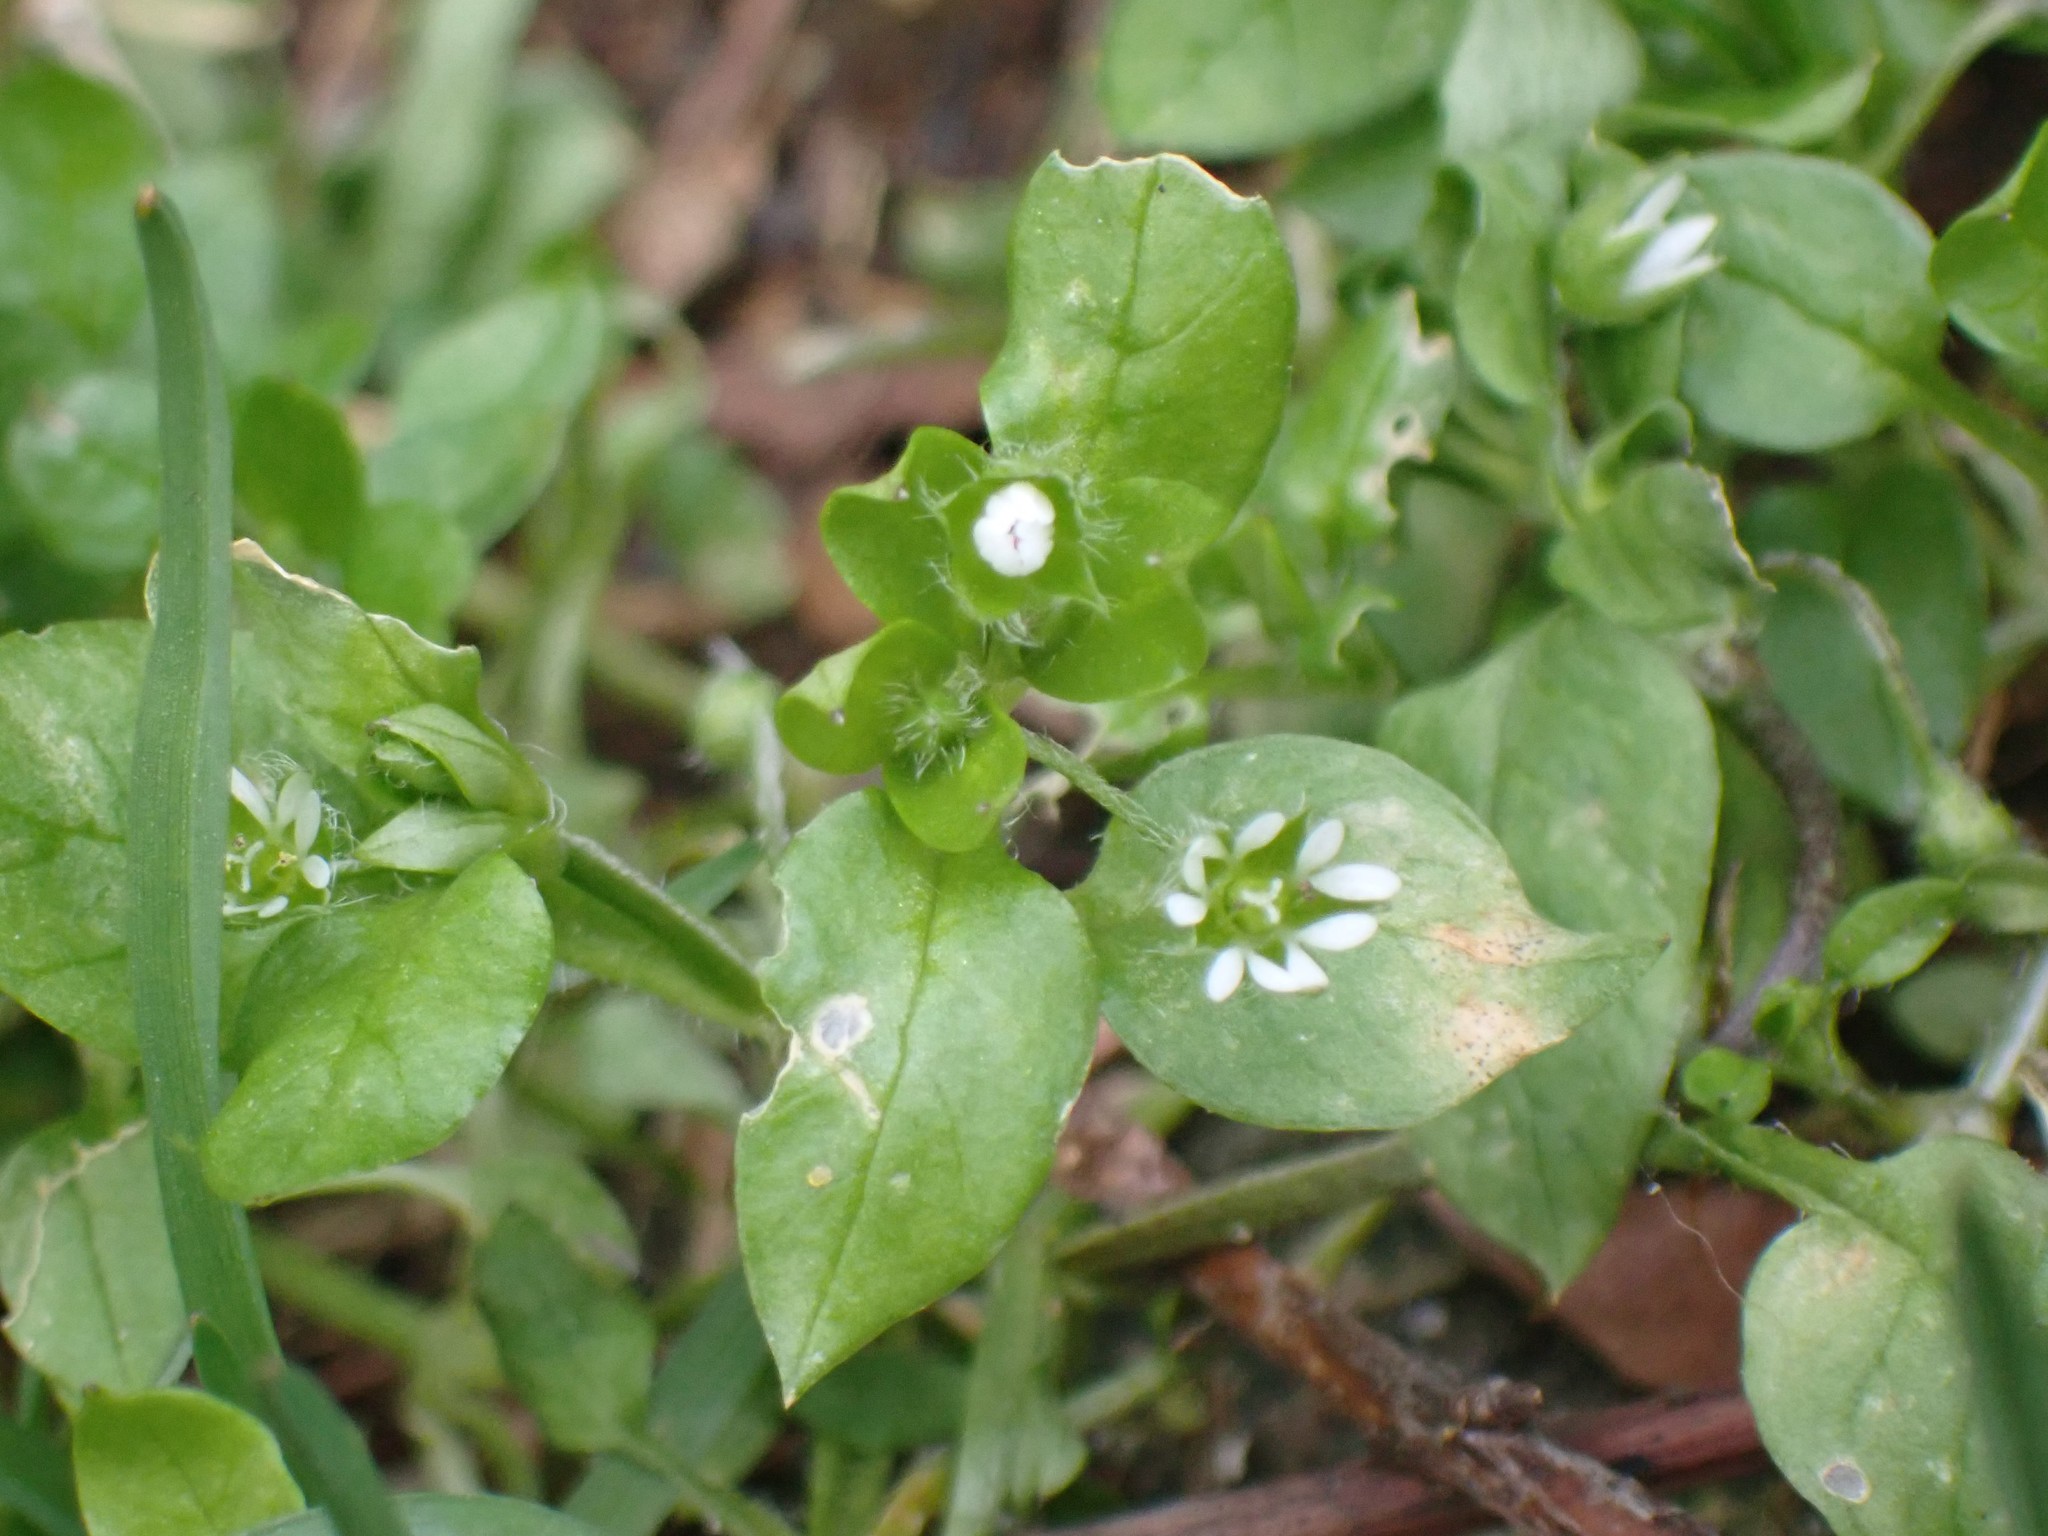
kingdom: Plantae
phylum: Tracheophyta
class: Magnoliopsida
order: Caryophyllales
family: Caryophyllaceae
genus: Stellaria
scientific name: Stellaria media
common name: Common chickweed
